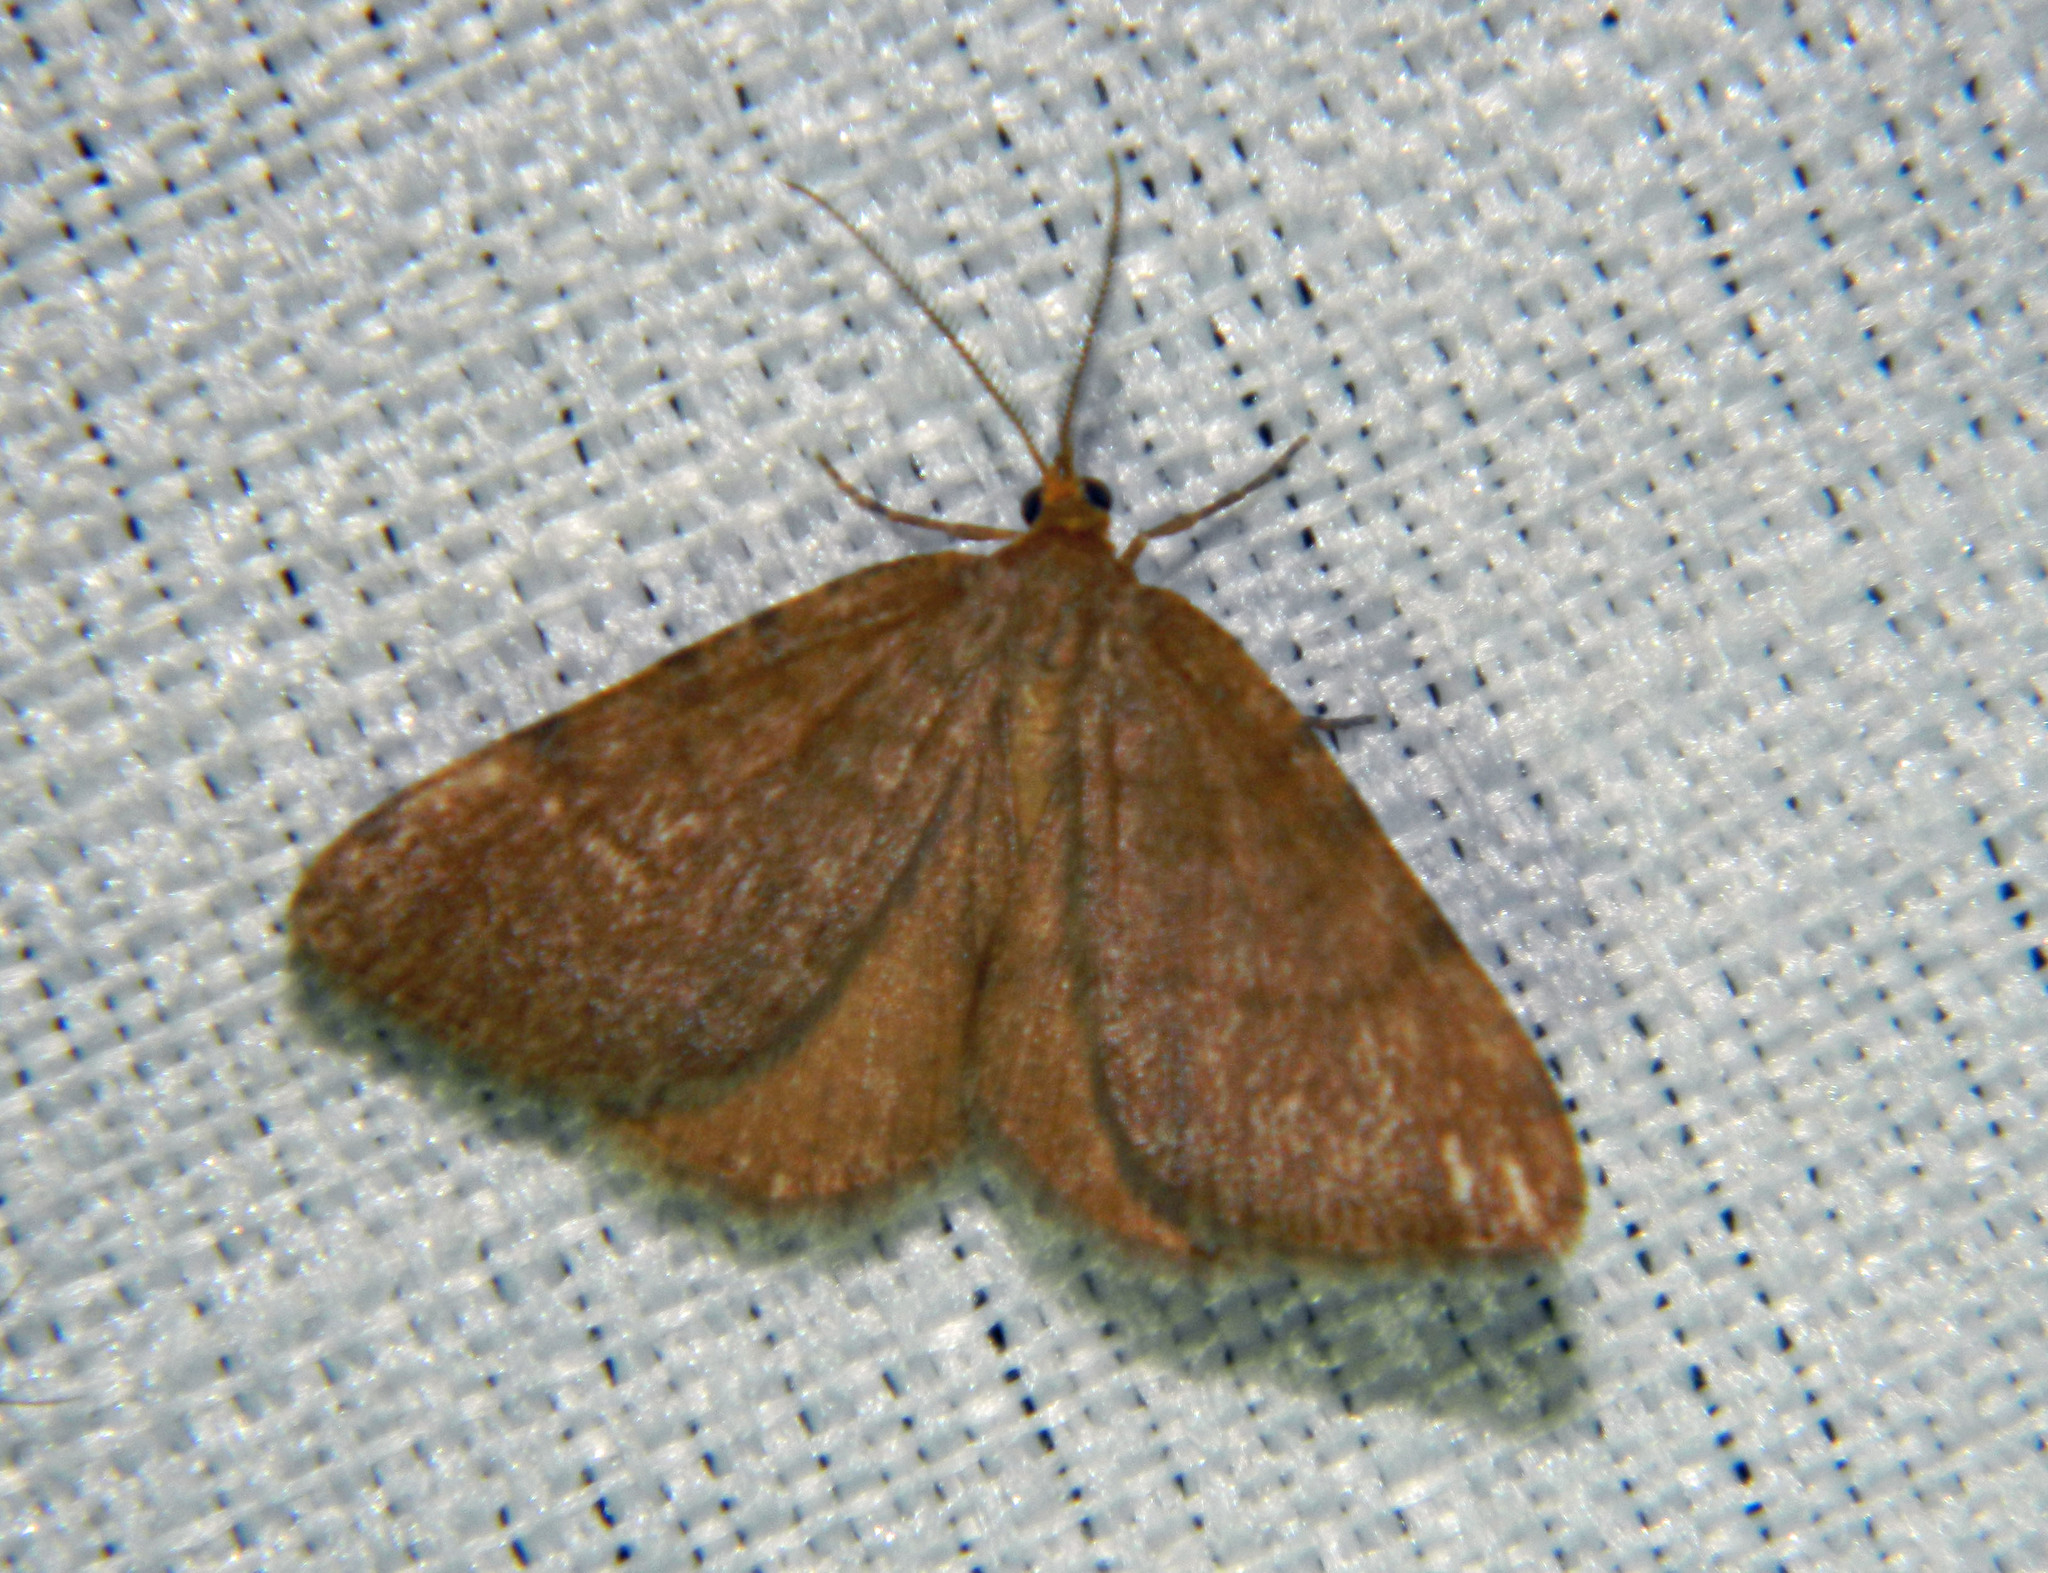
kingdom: Animalia
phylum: Arthropoda
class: Insecta
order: Lepidoptera
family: Geometridae
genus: Macaria
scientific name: Macaria brunneata
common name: Rannoch looper
